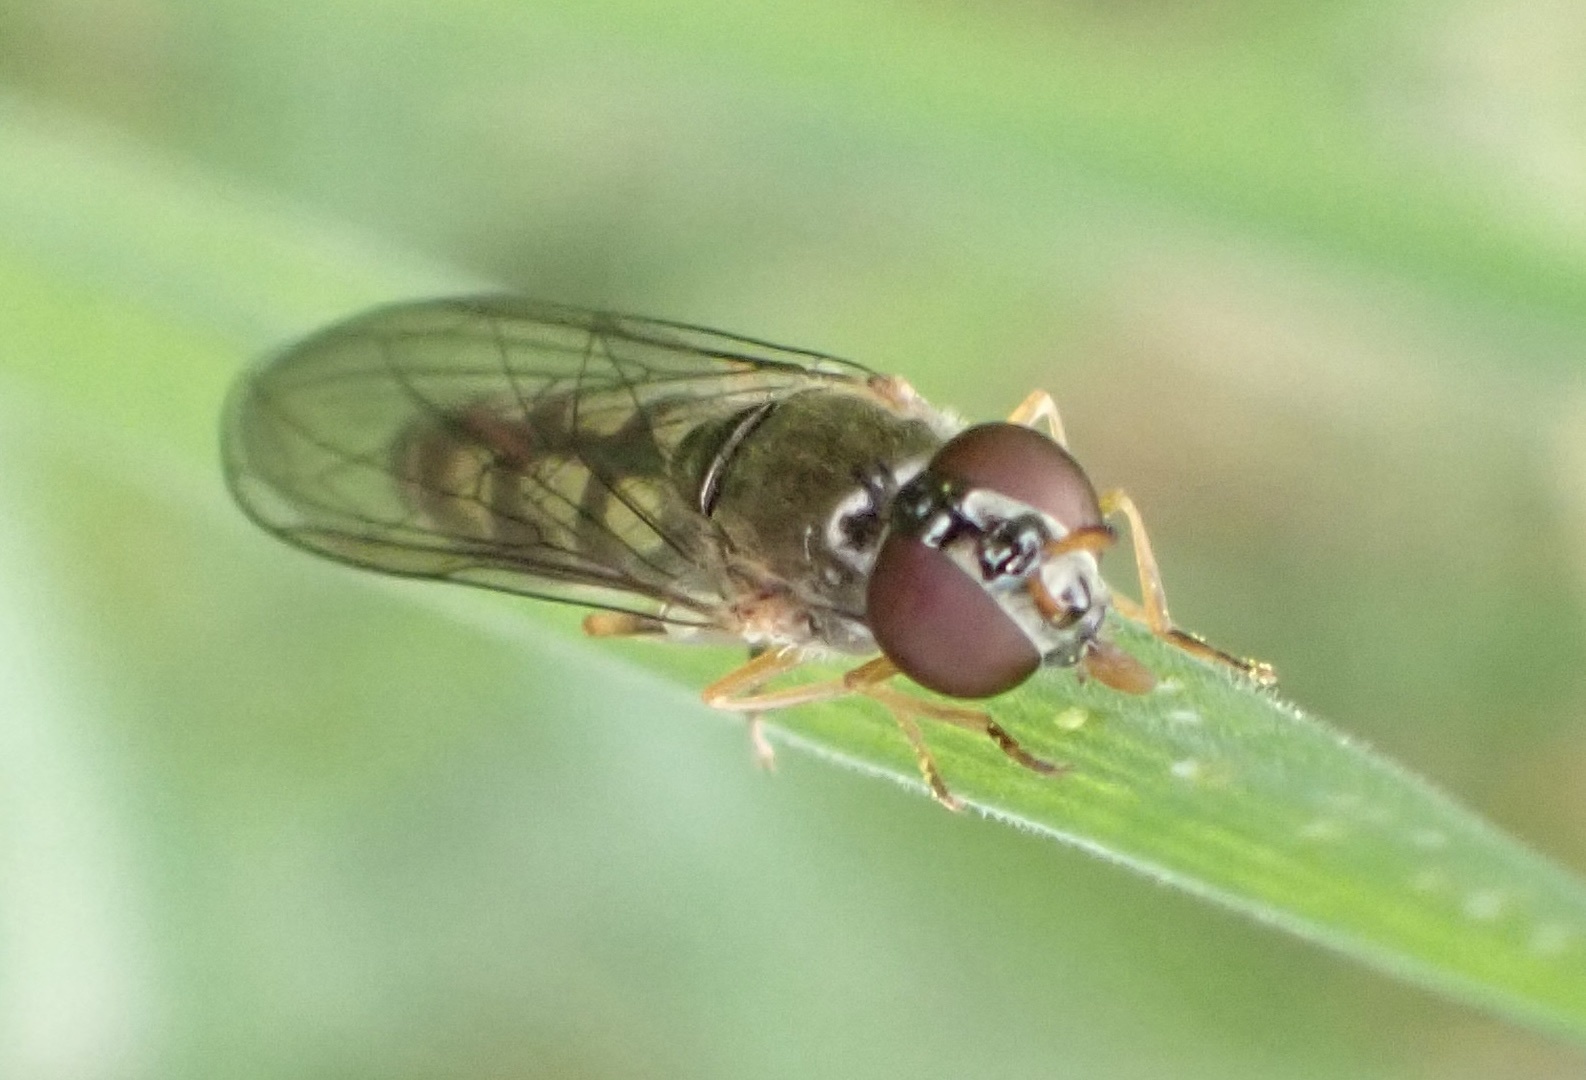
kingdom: Animalia
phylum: Arthropoda
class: Insecta
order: Diptera
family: Syrphidae
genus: Melanostoma
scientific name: Melanostoma scalare
